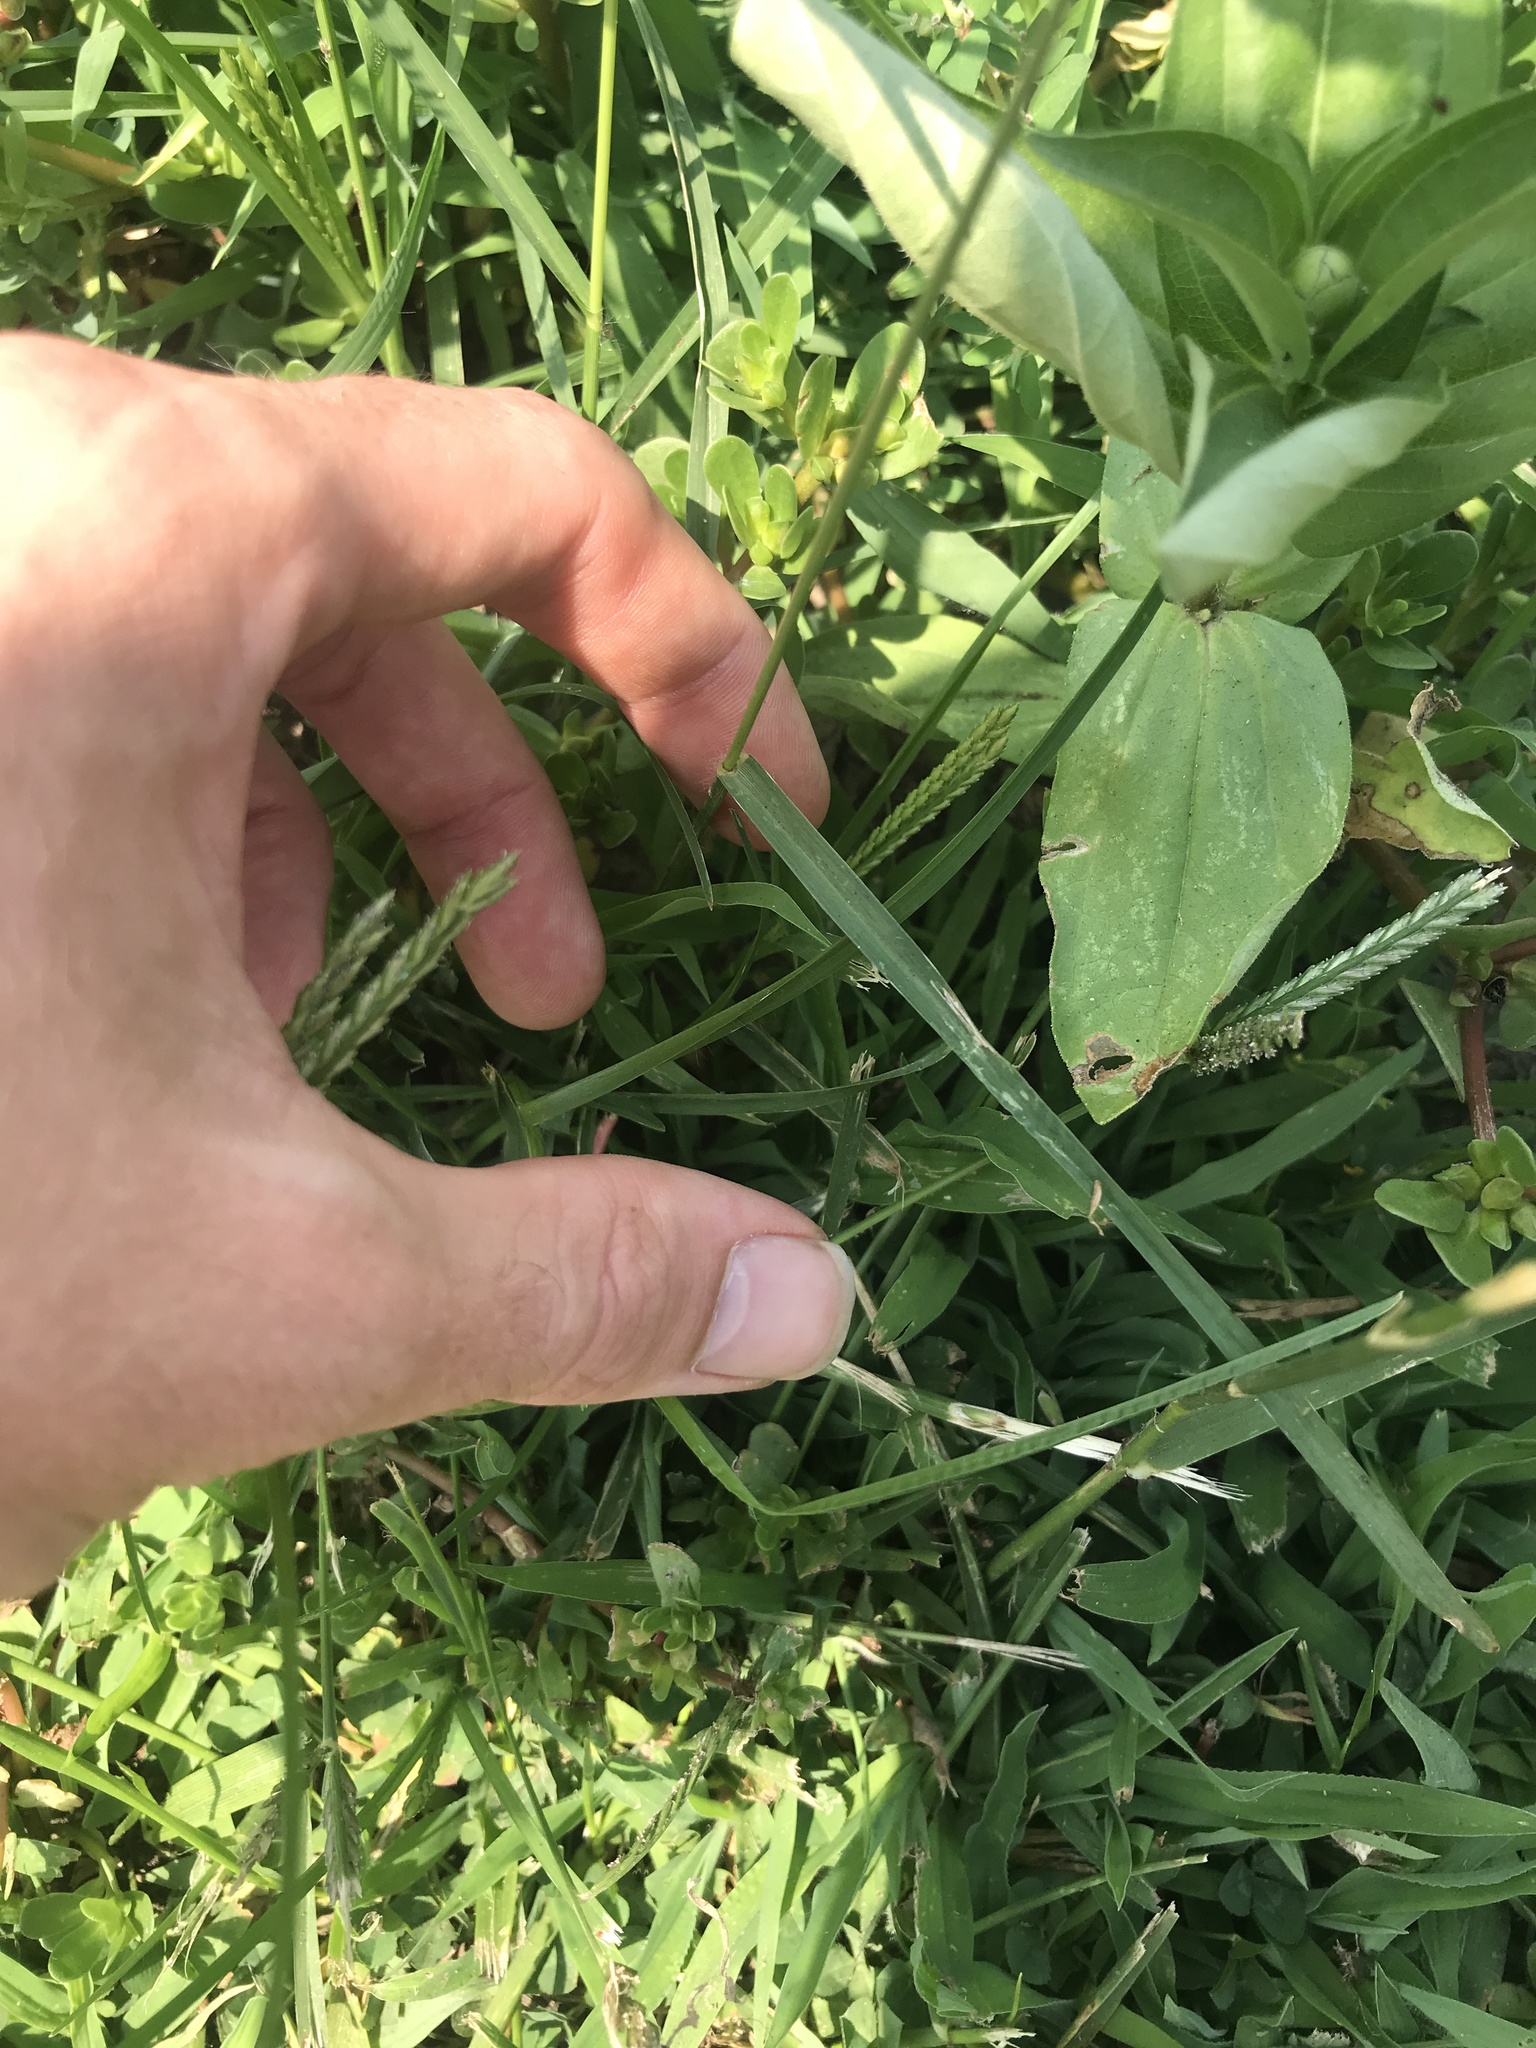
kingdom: Plantae
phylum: Tracheophyta
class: Liliopsida
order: Poales
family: Poaceae
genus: Eleusine
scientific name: Eleusine indica
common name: Yard-grass
